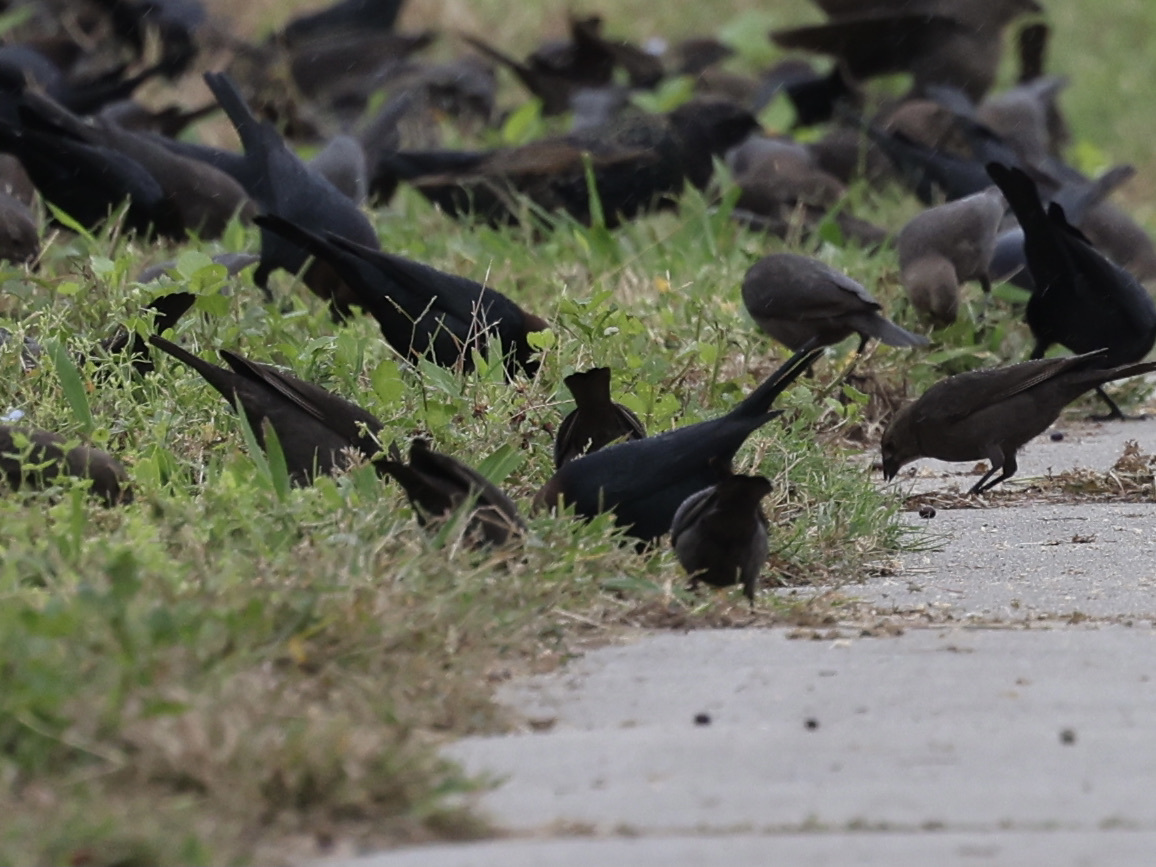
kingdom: Animalia
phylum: Chordata
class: Aves
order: Passeriformes
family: Icteridae
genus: Molothrus
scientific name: Molothrus ater
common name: Brown-headed cowbird
